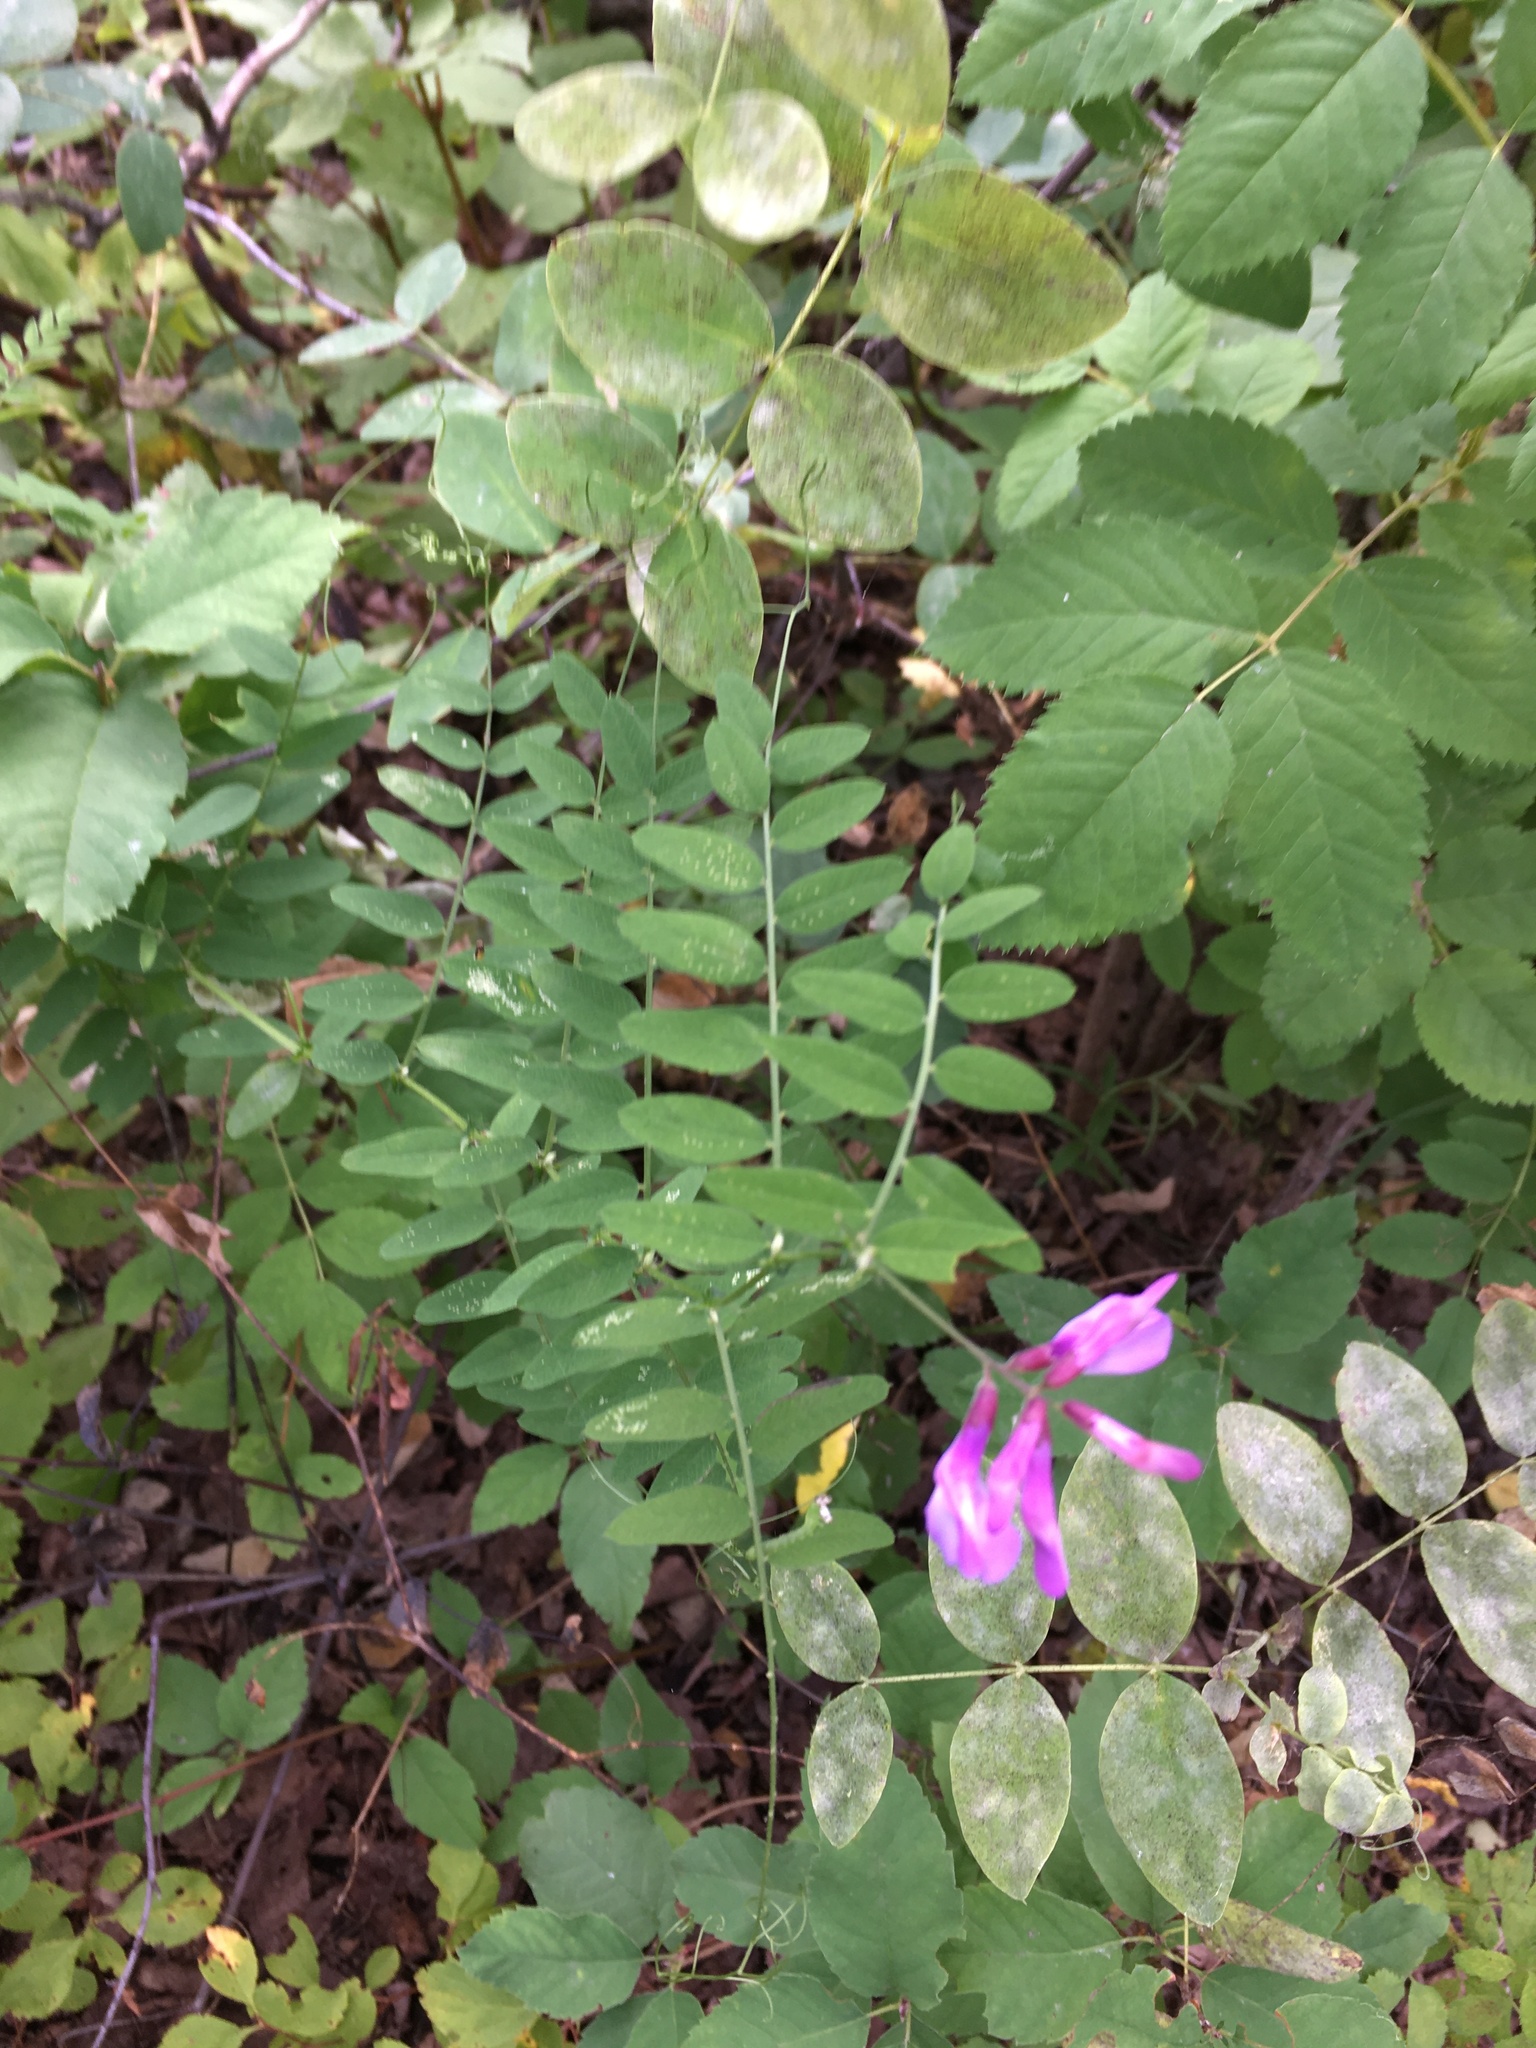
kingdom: Plantae
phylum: Tracheophyta
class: Magnoliopsida
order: Fabales
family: Fabaceae
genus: Vicia
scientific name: Vicia americana
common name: American vetch
